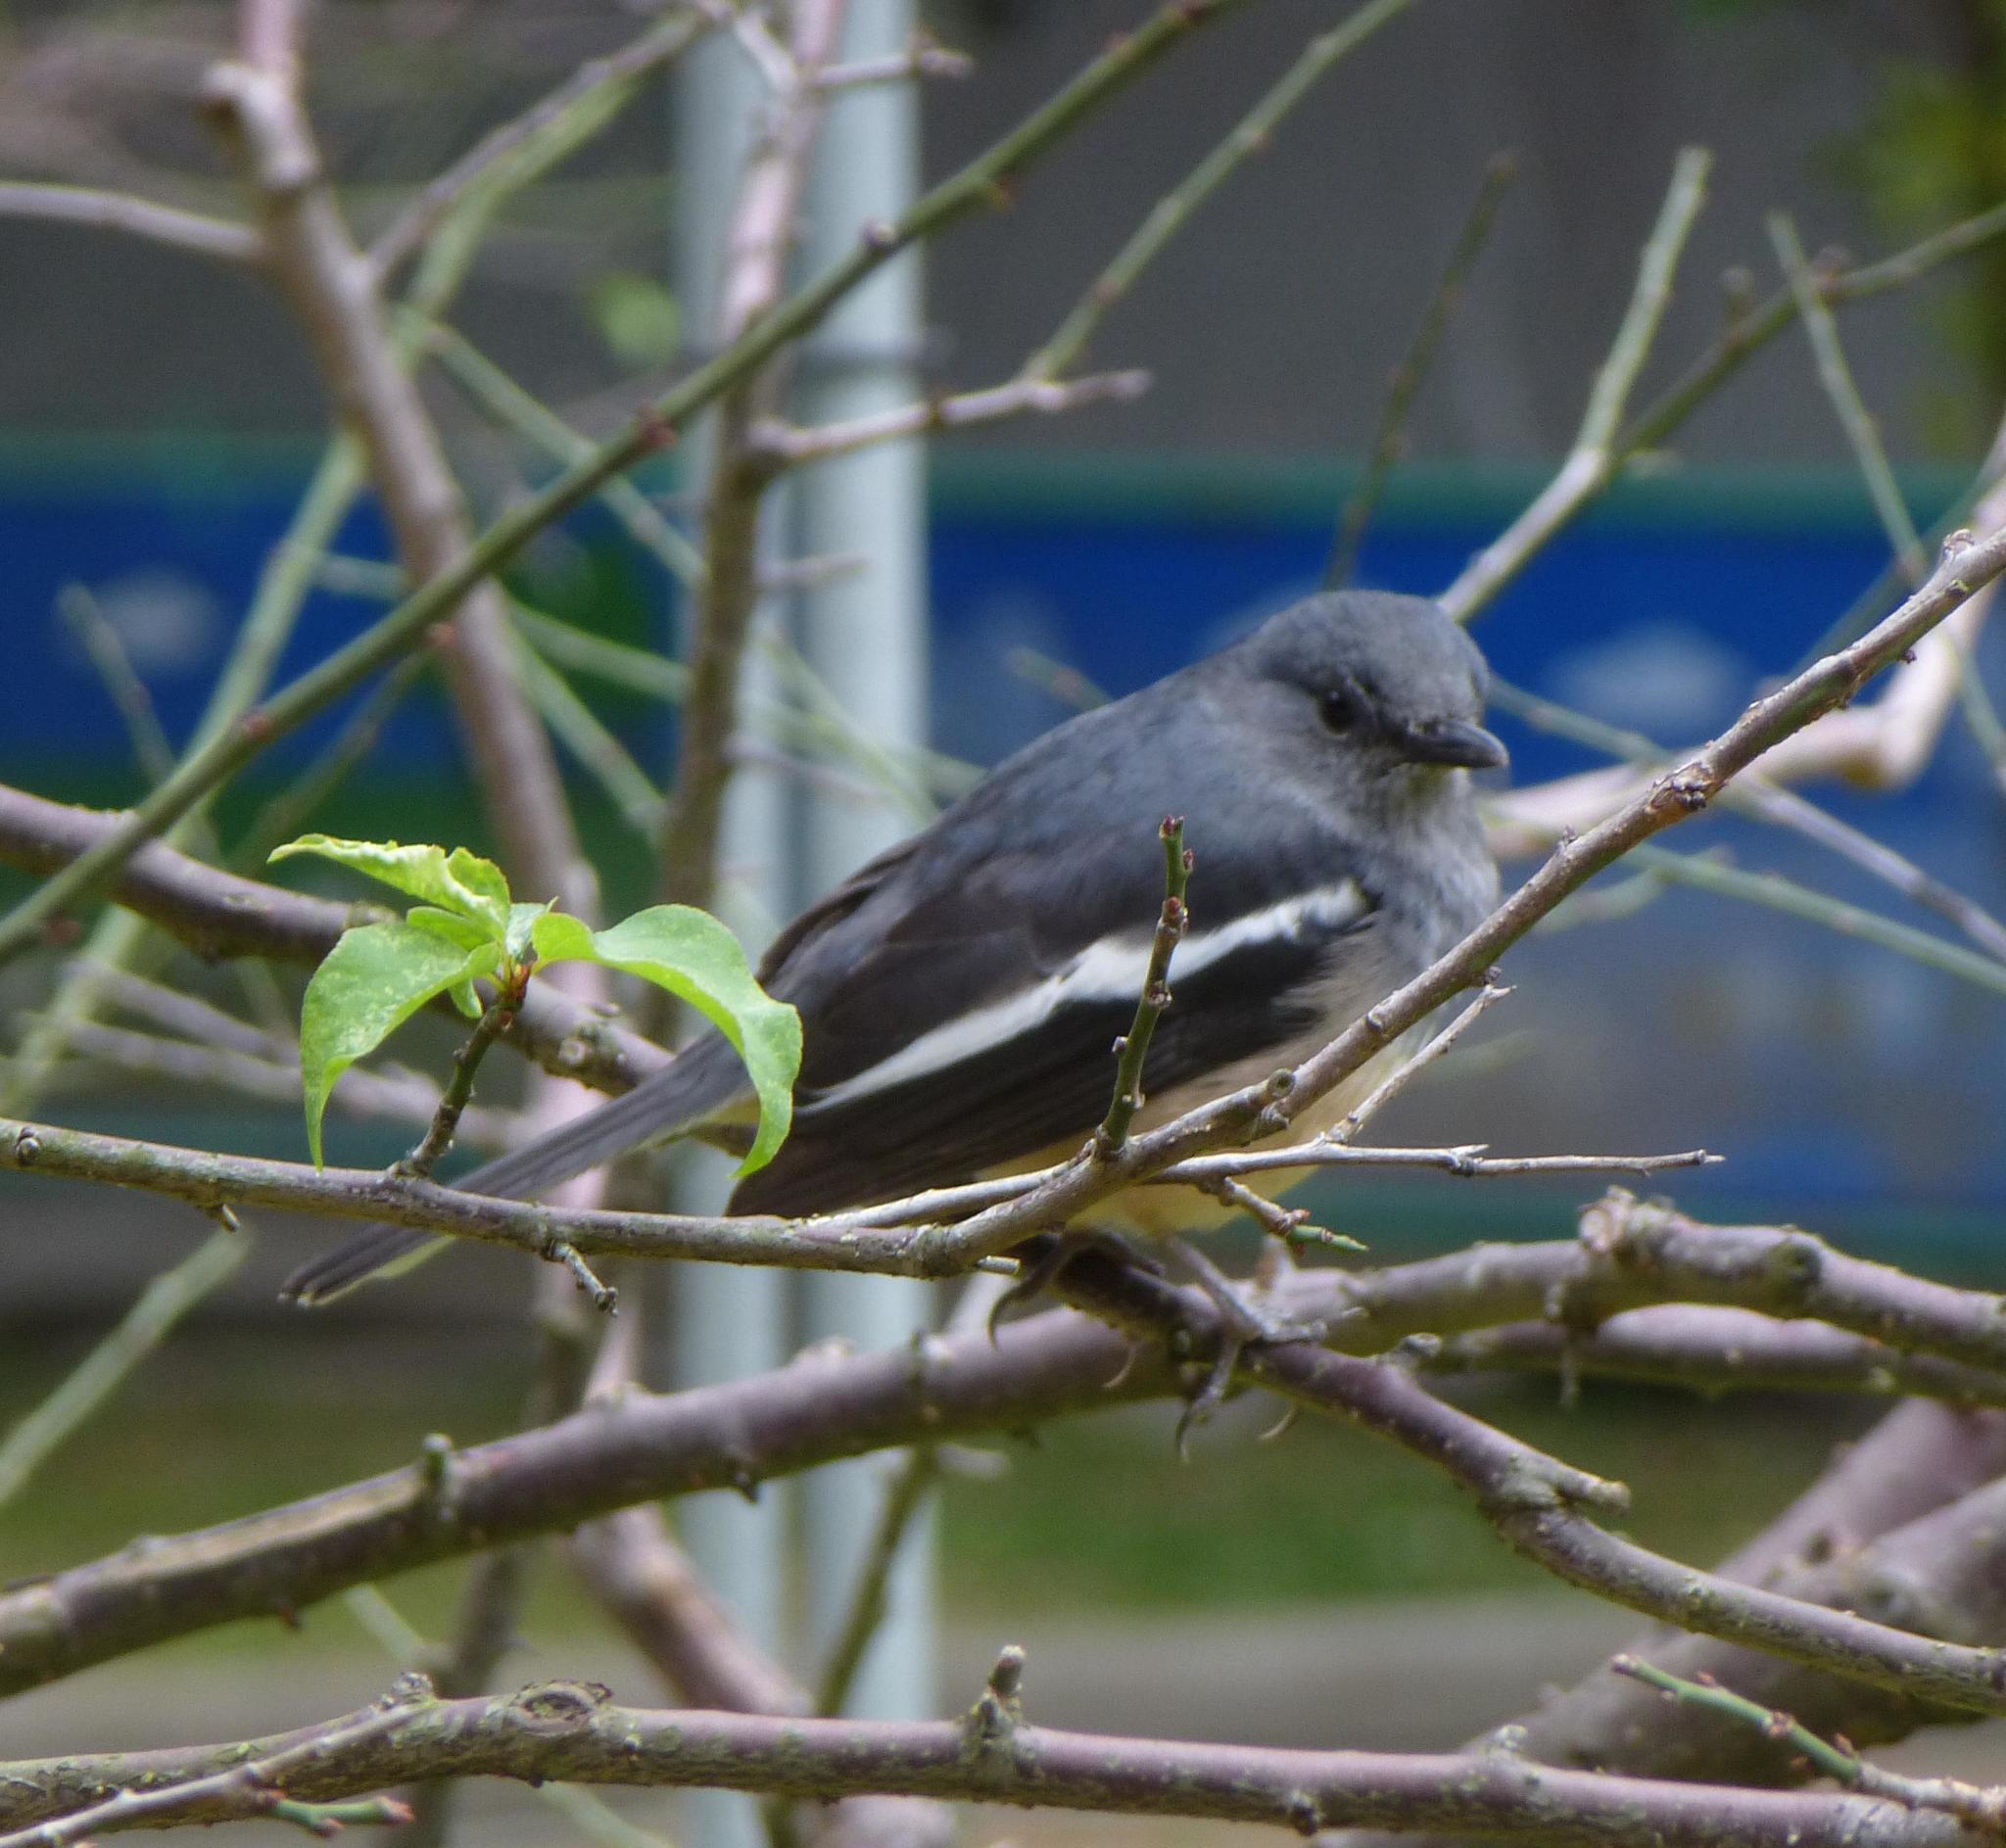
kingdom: Animalia
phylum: Chordata
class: Aves
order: Passeriformes
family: Muscicapidae
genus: Copsychus
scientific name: Copsychus saularis
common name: Oriental magpie-robin
